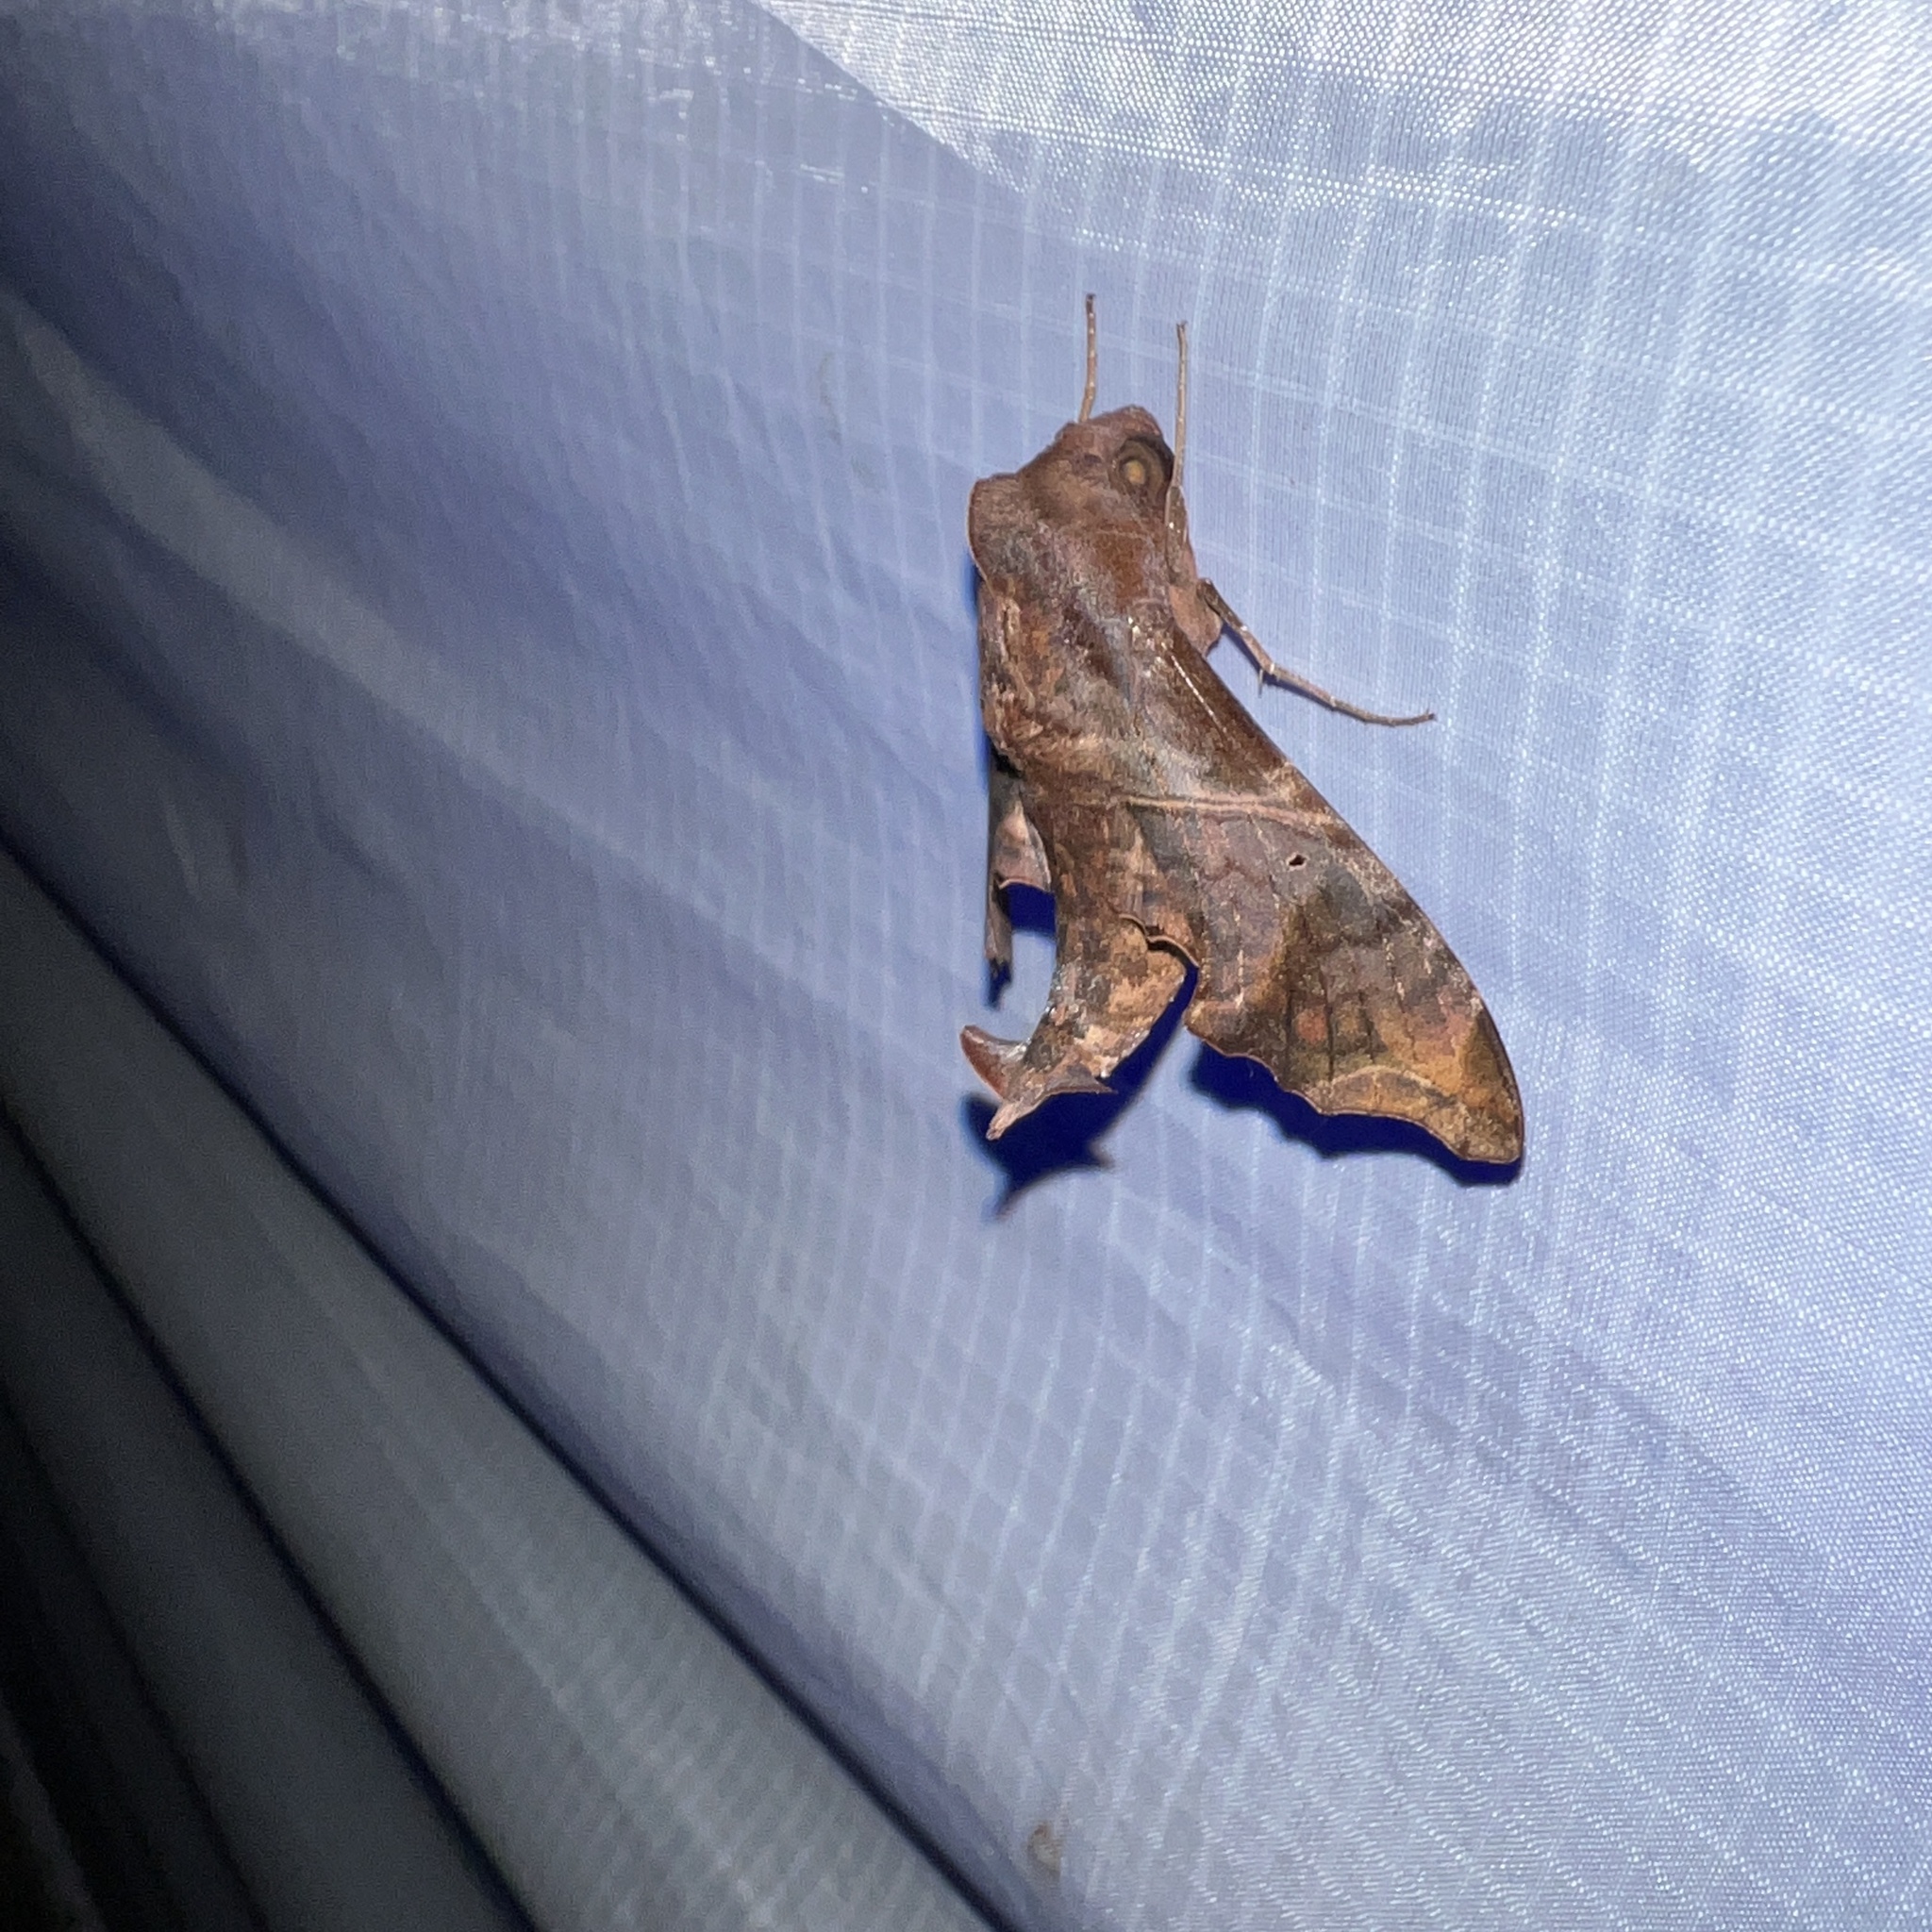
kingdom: Animalia
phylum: Arthropoda
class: Insecta
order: Lepidoptera
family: Sphingidae
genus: Enyo
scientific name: Enyo lugubris
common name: Mournful sphinx
